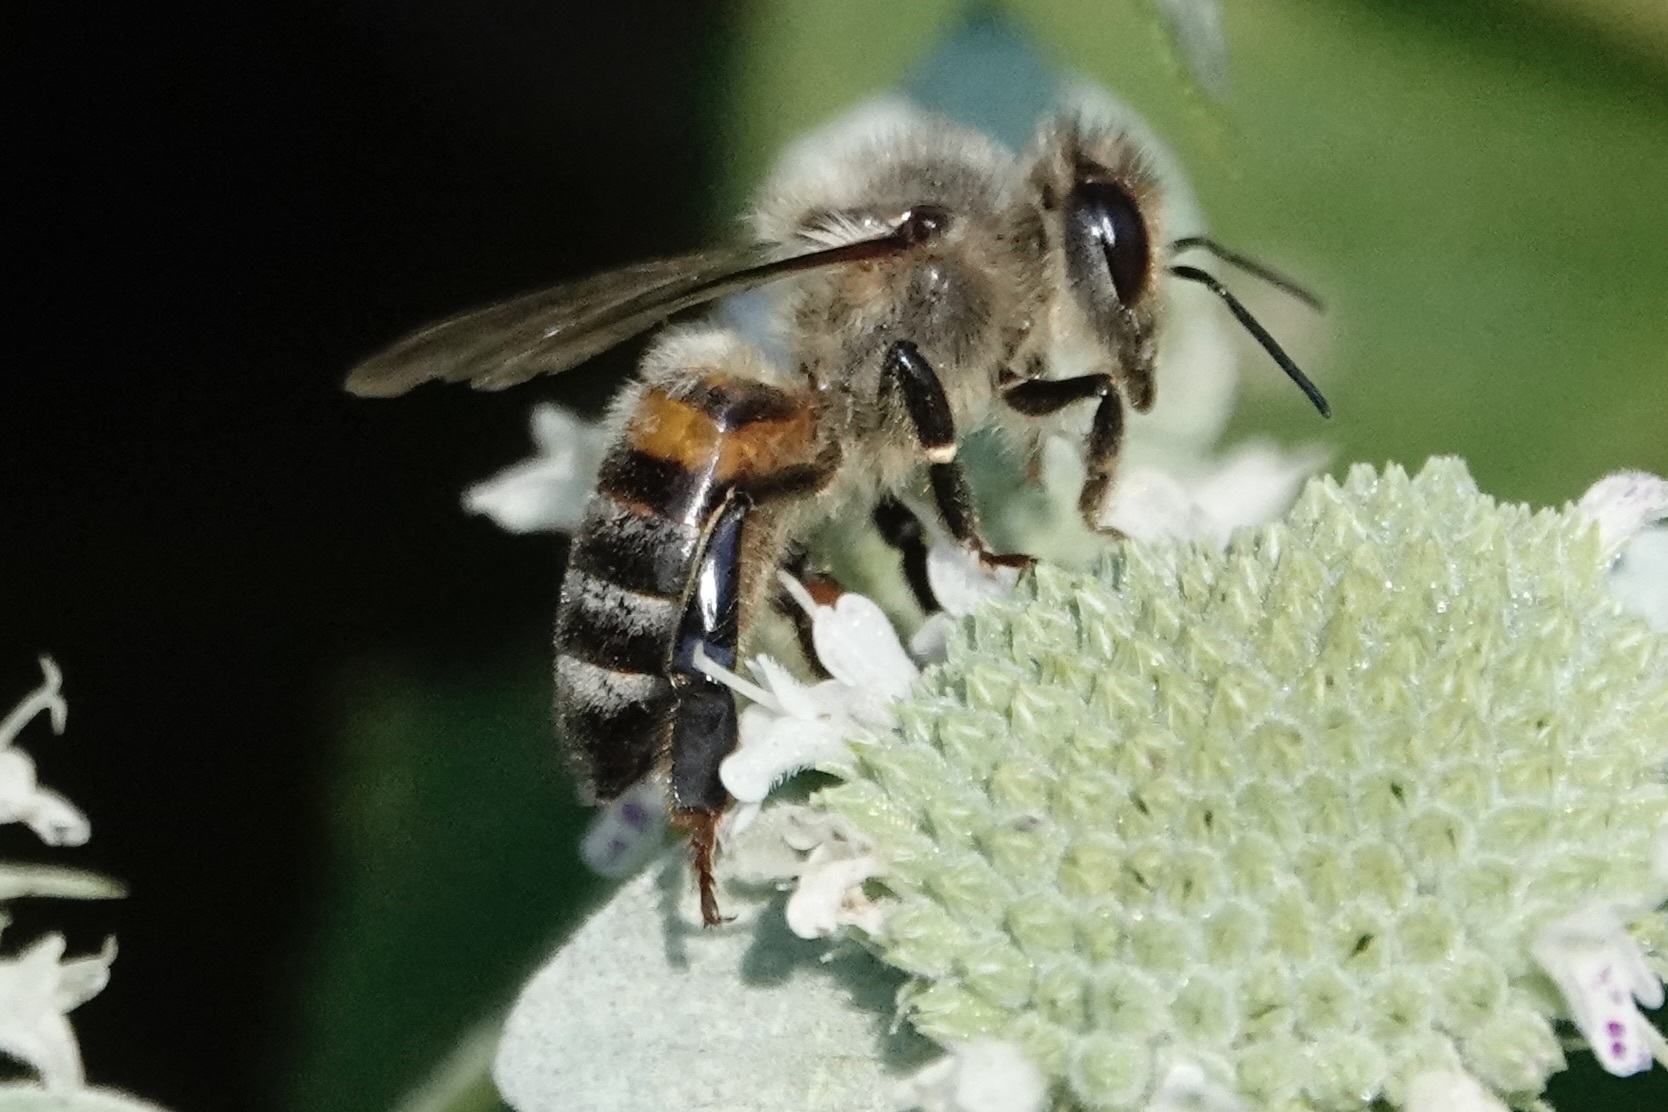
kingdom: Animalia
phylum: Arthropoda
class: Insecta
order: Hymenoptera
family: Apidae
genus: Apis
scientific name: Apis mellifera
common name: Honey bee
